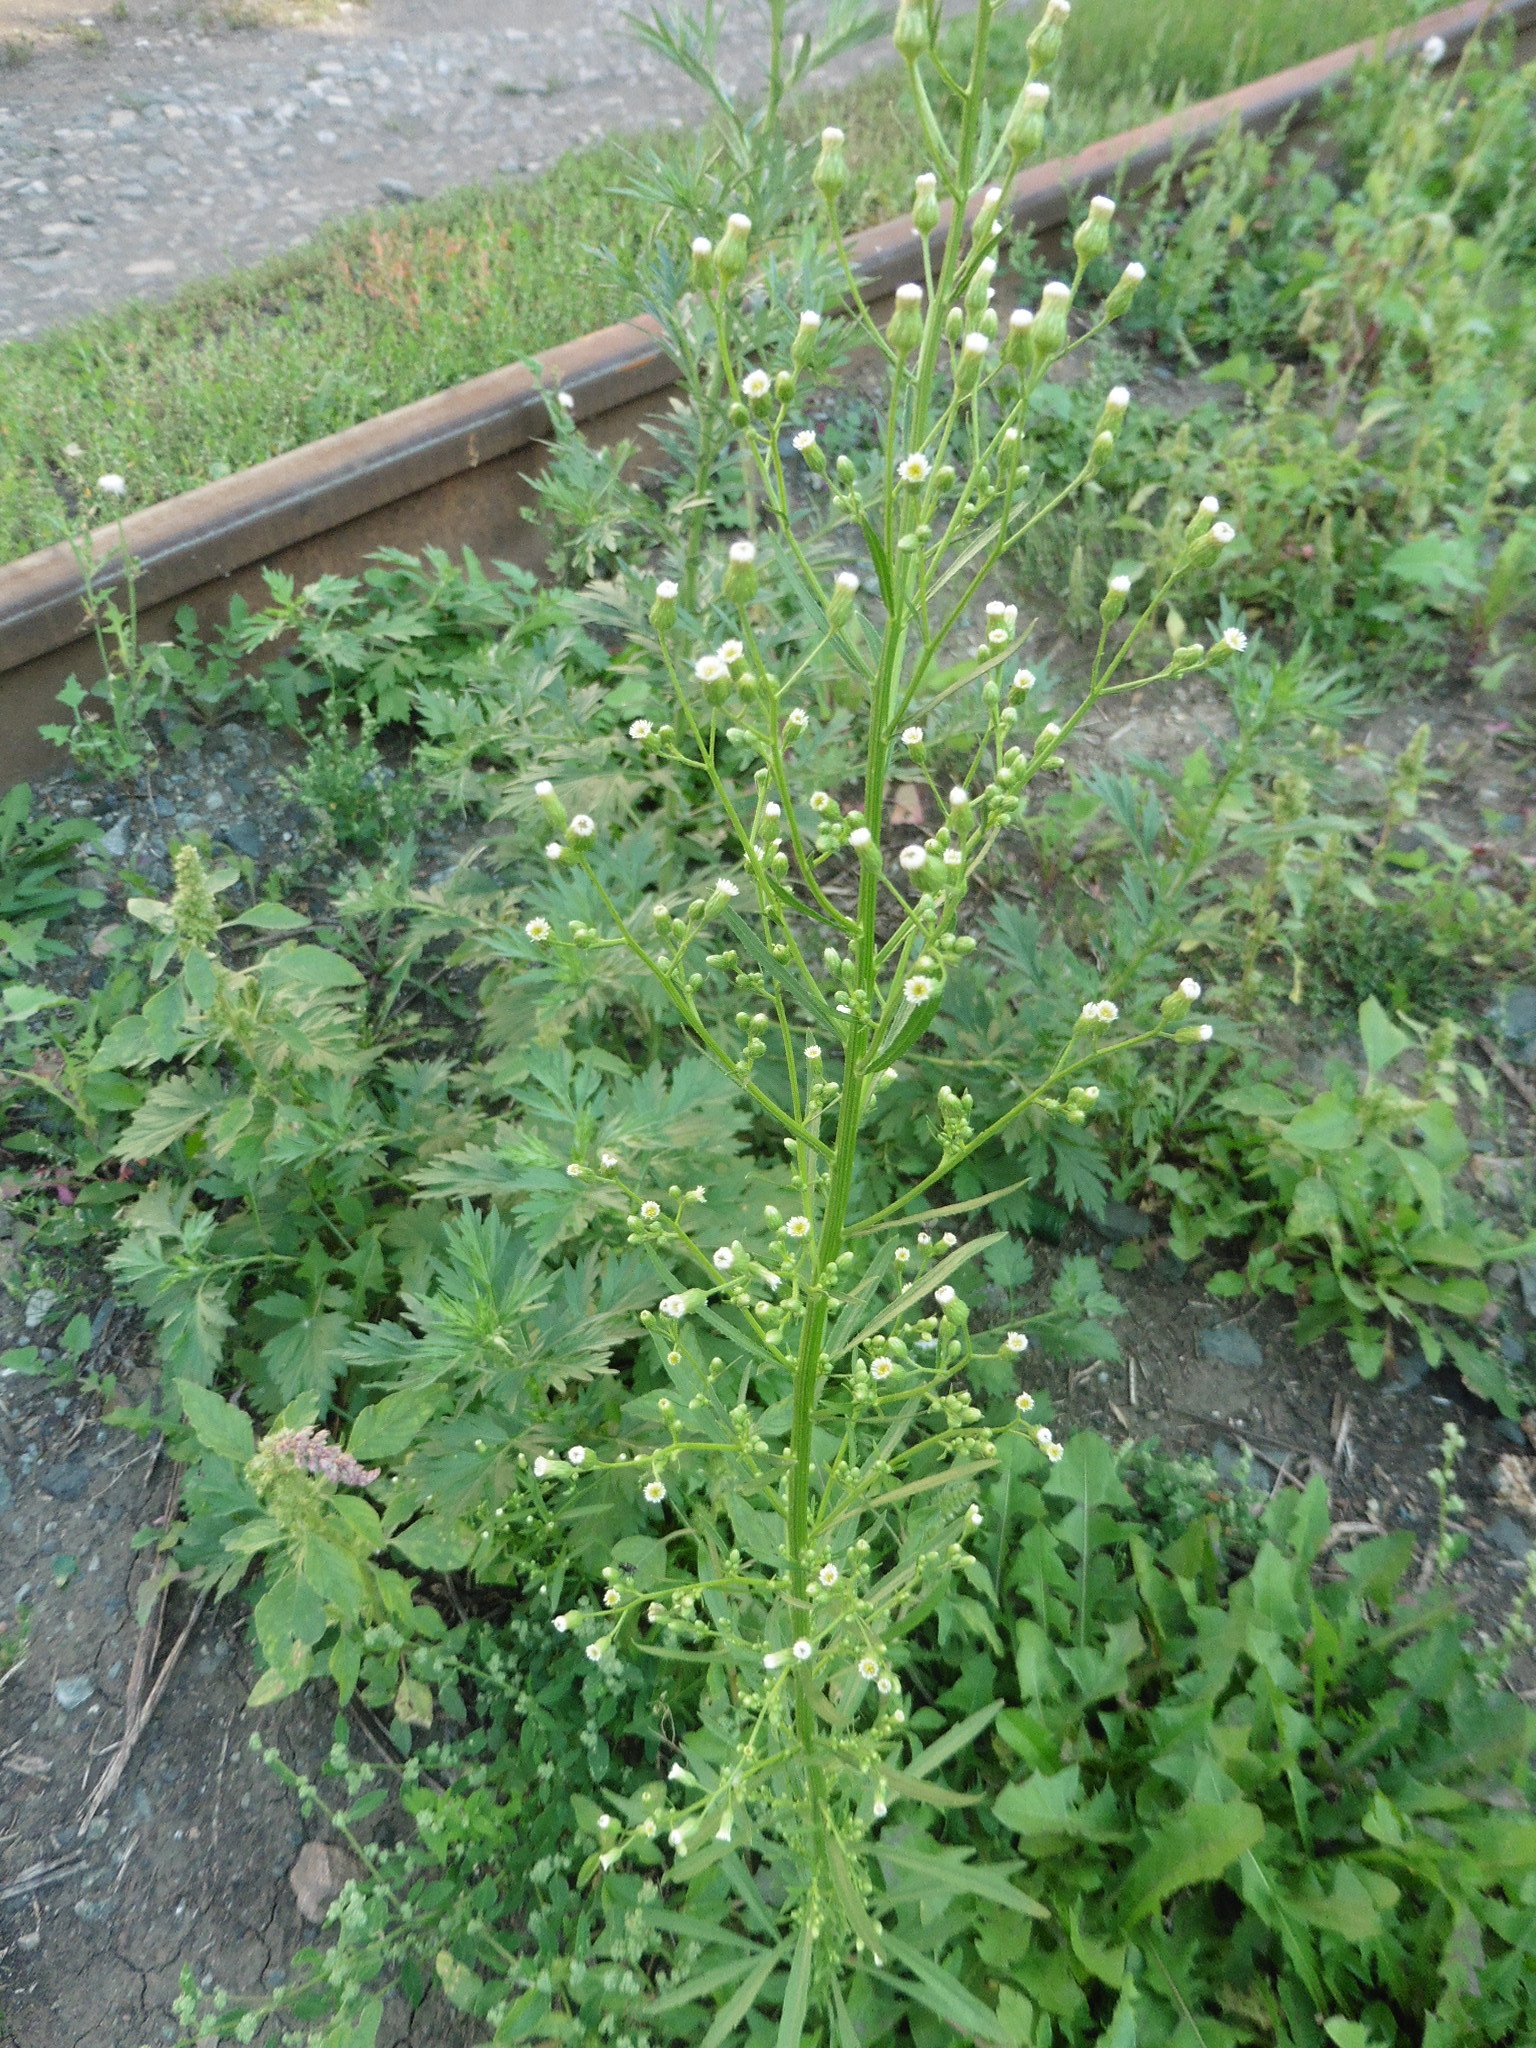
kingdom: Plantae
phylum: Tracheophyta
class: Magnoliopsida
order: Asterales
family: Asteraceae
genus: Erigeron
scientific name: Erigeron canadensis
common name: Canadian fleabane
